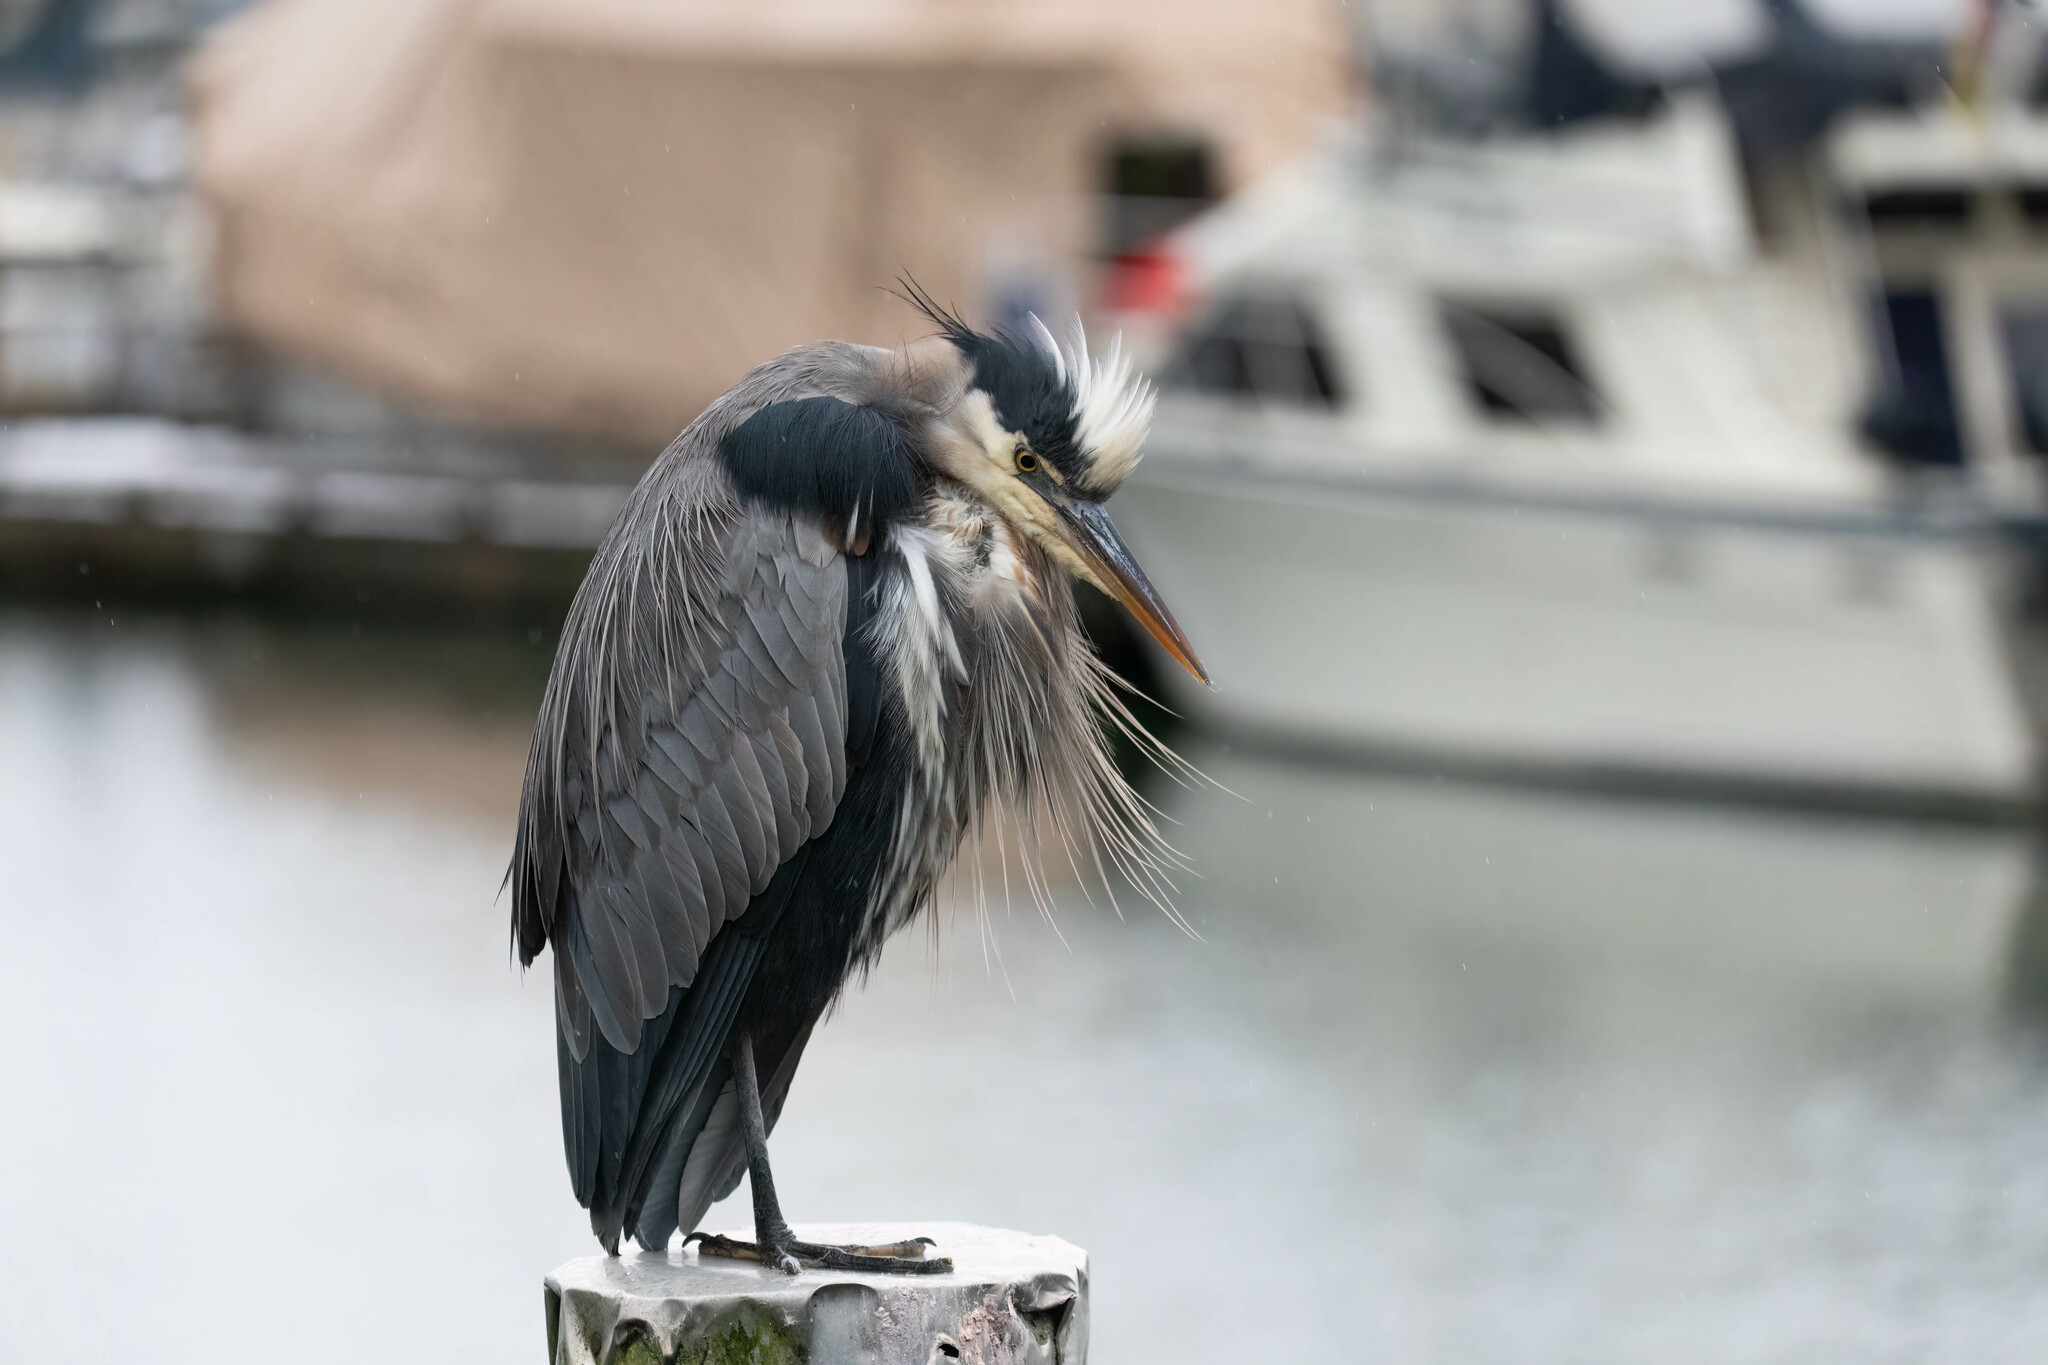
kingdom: Animalia
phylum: Chordata
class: Aves
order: Pelecaniformes
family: Ardeidae
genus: Ardea
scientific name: Ardea herodias
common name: Great blue heron
